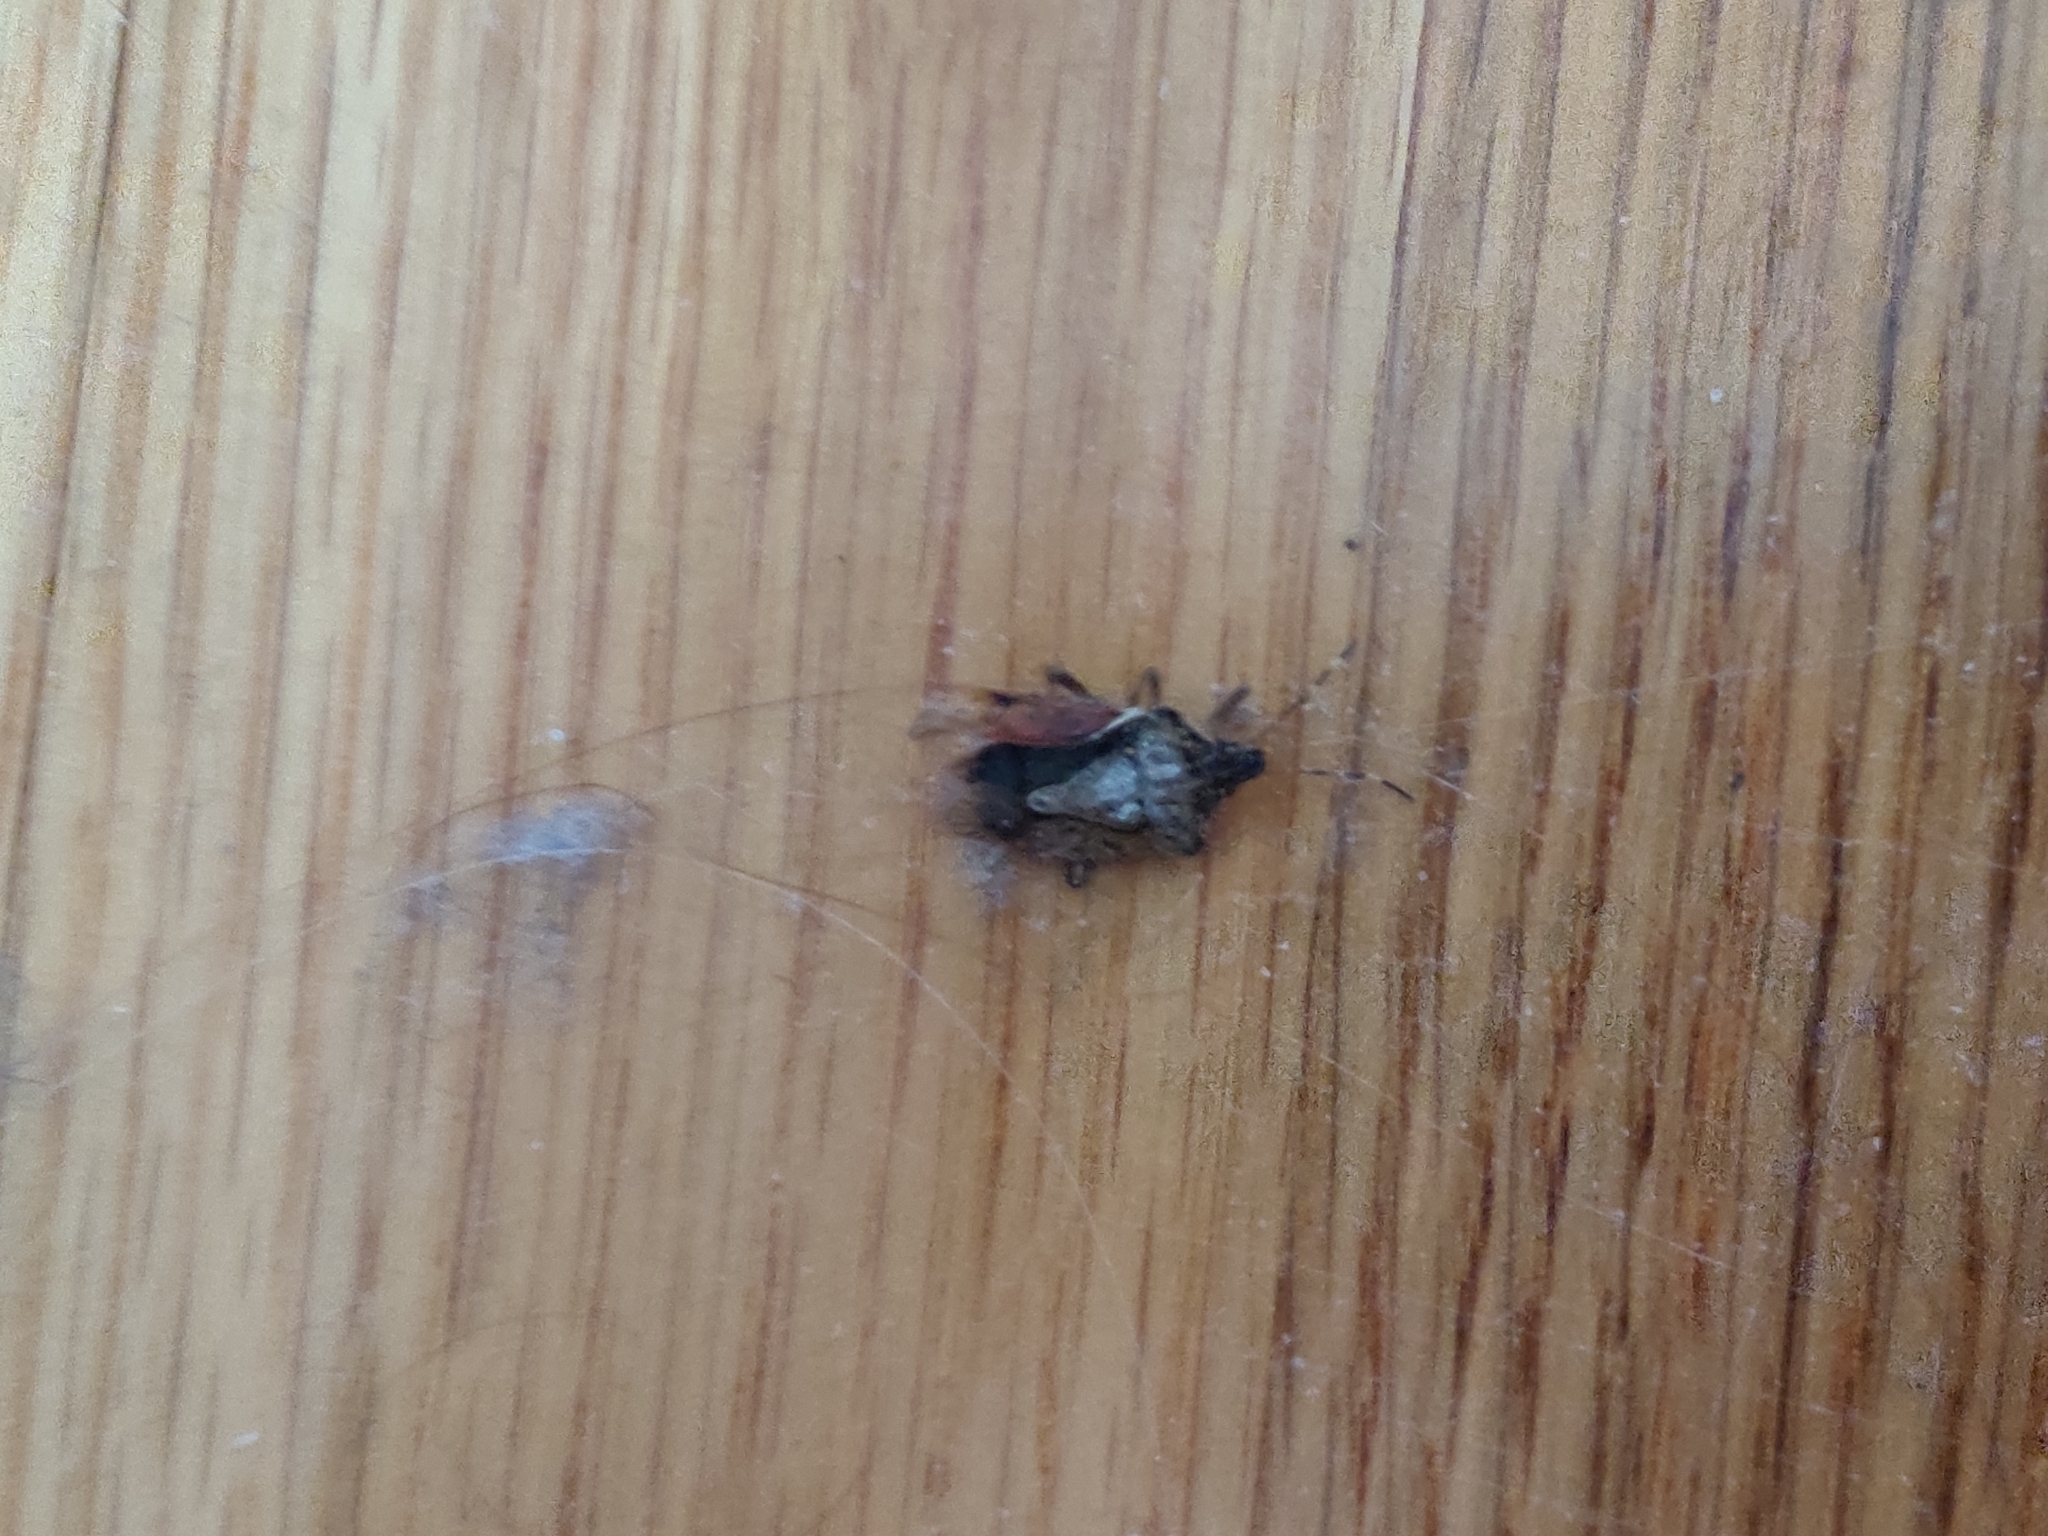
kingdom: Animalia
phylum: Arthropoda
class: Insecta
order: Hemiptera
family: Pentatomidae
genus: Halyomorpha
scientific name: Halyomorpha halys
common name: Brown marmorated stink bug
